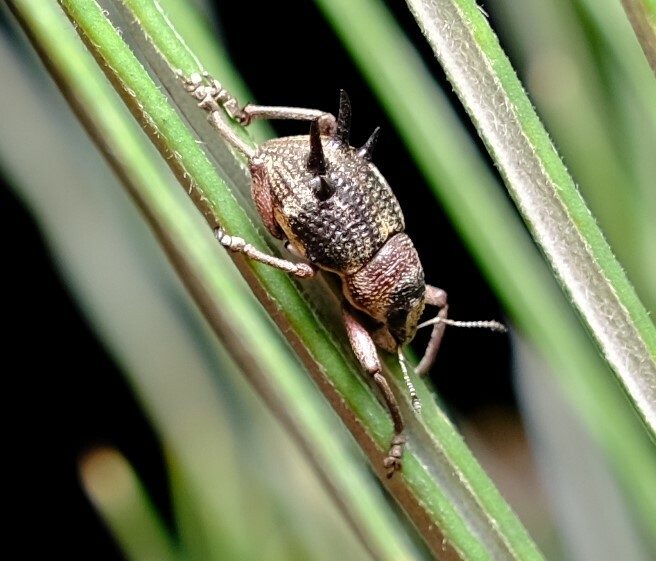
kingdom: Animalia
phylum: Arthropoda
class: Insecta
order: Coleoptera
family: Curculionidae
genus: Catasarcus
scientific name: Catasarcus bicolor
